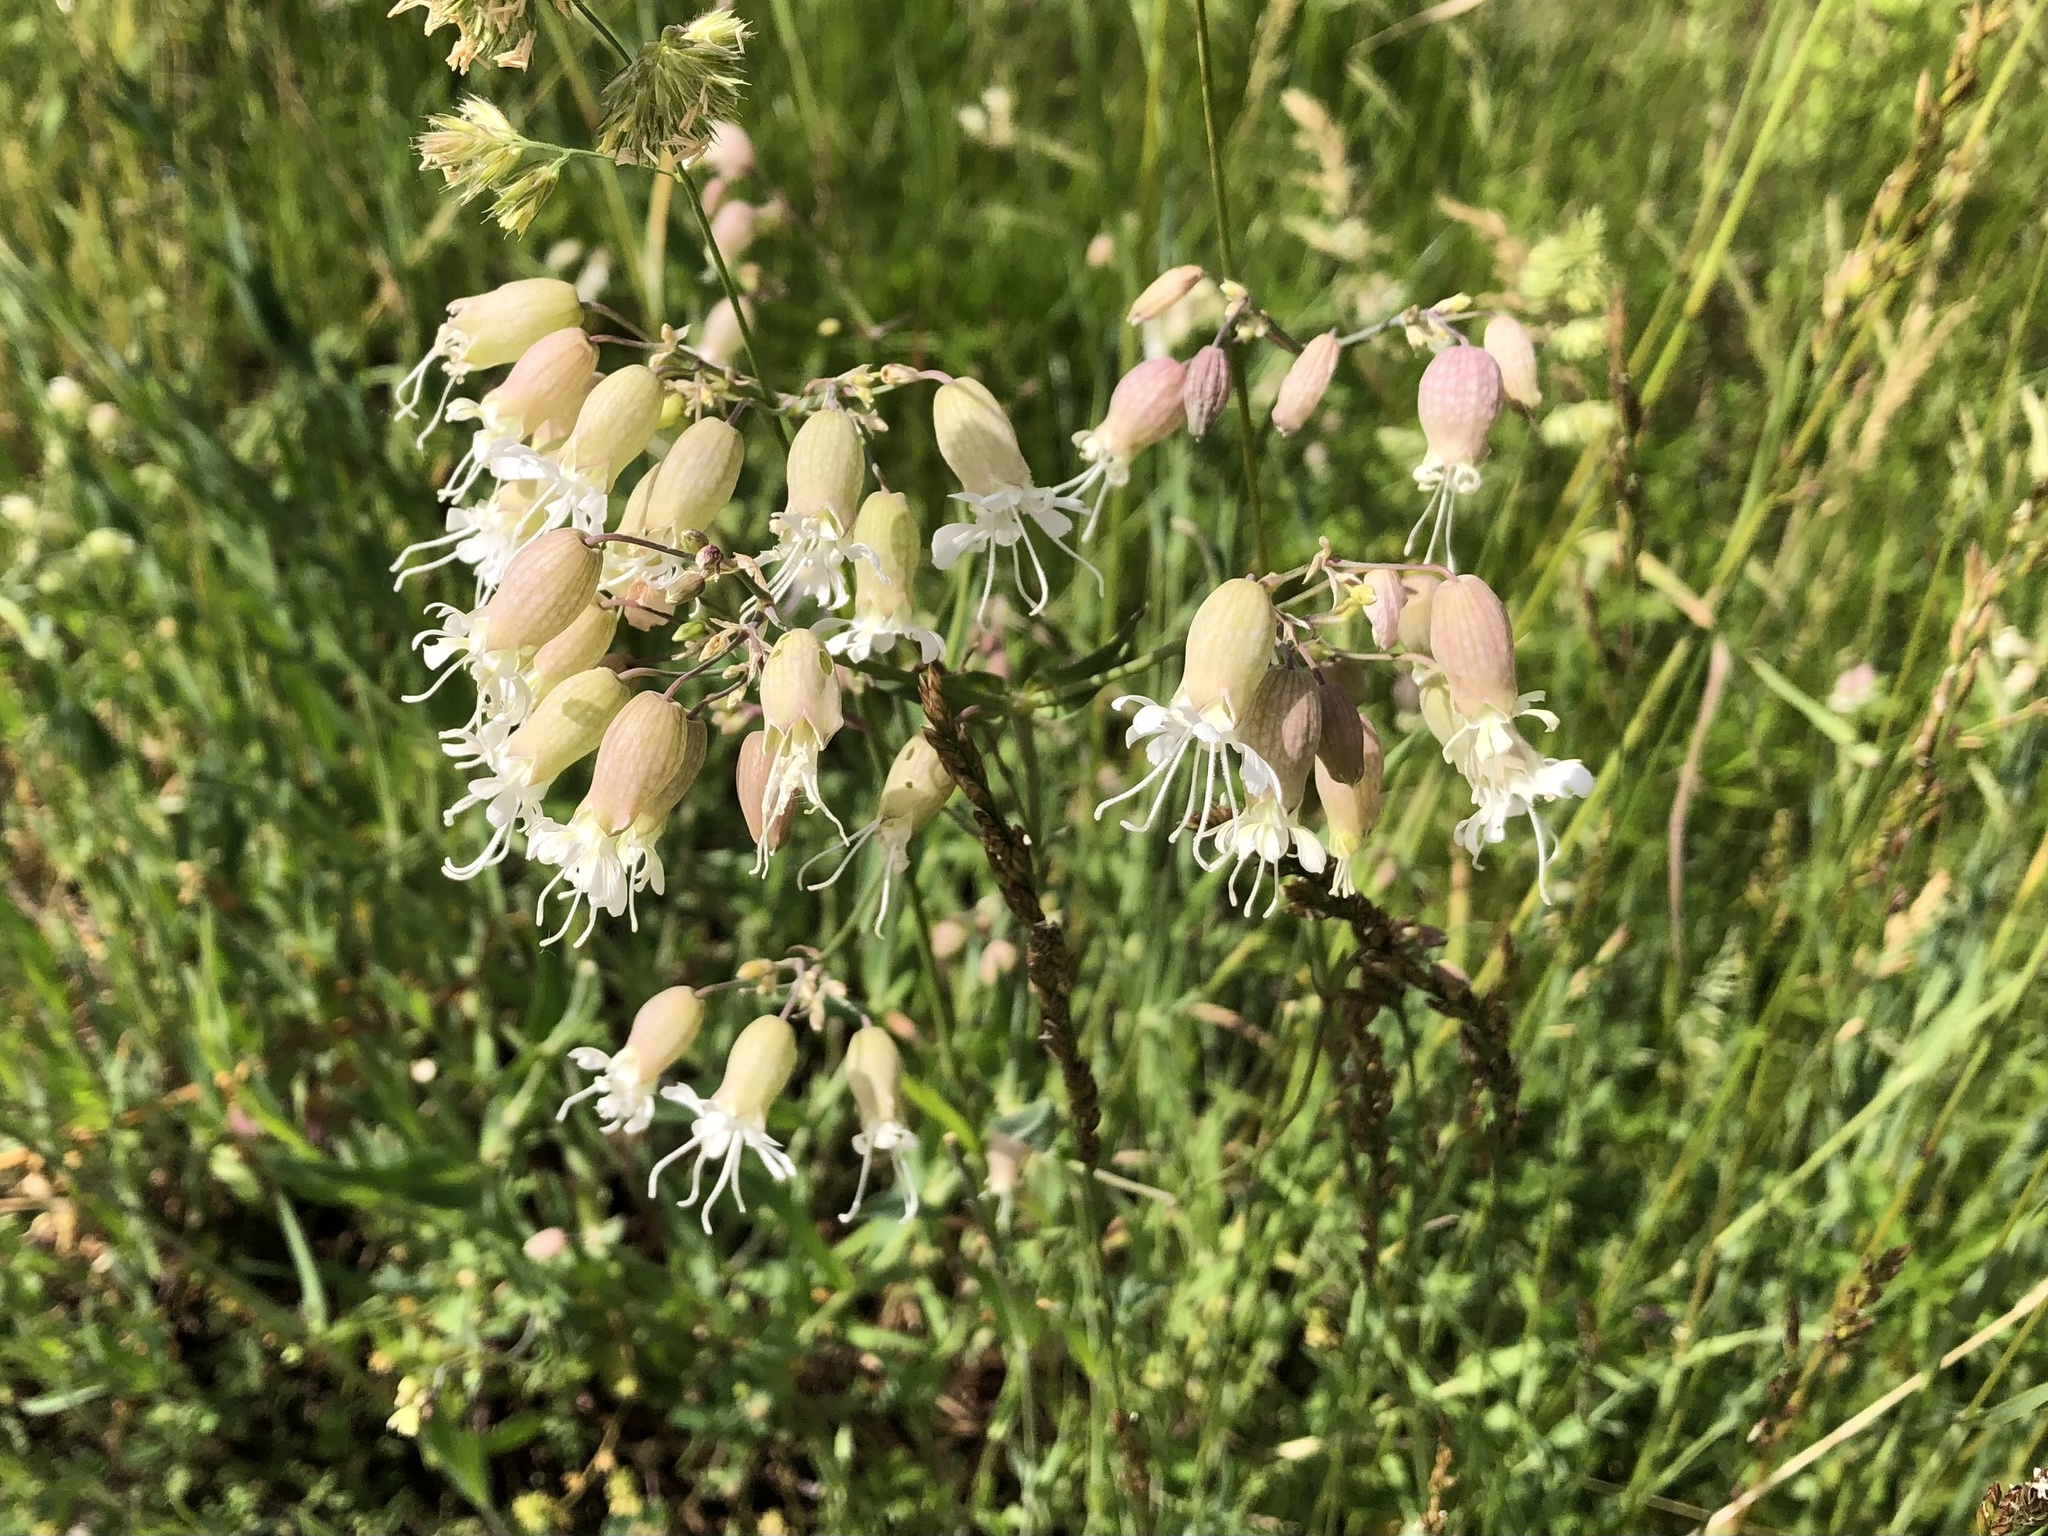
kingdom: Plantae
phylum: Tracheophyta
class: Magnoliopsida
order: Caryophyllales
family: Caryophyllaceae
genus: Silene
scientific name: Silene vulgaris
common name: Bladder campion
